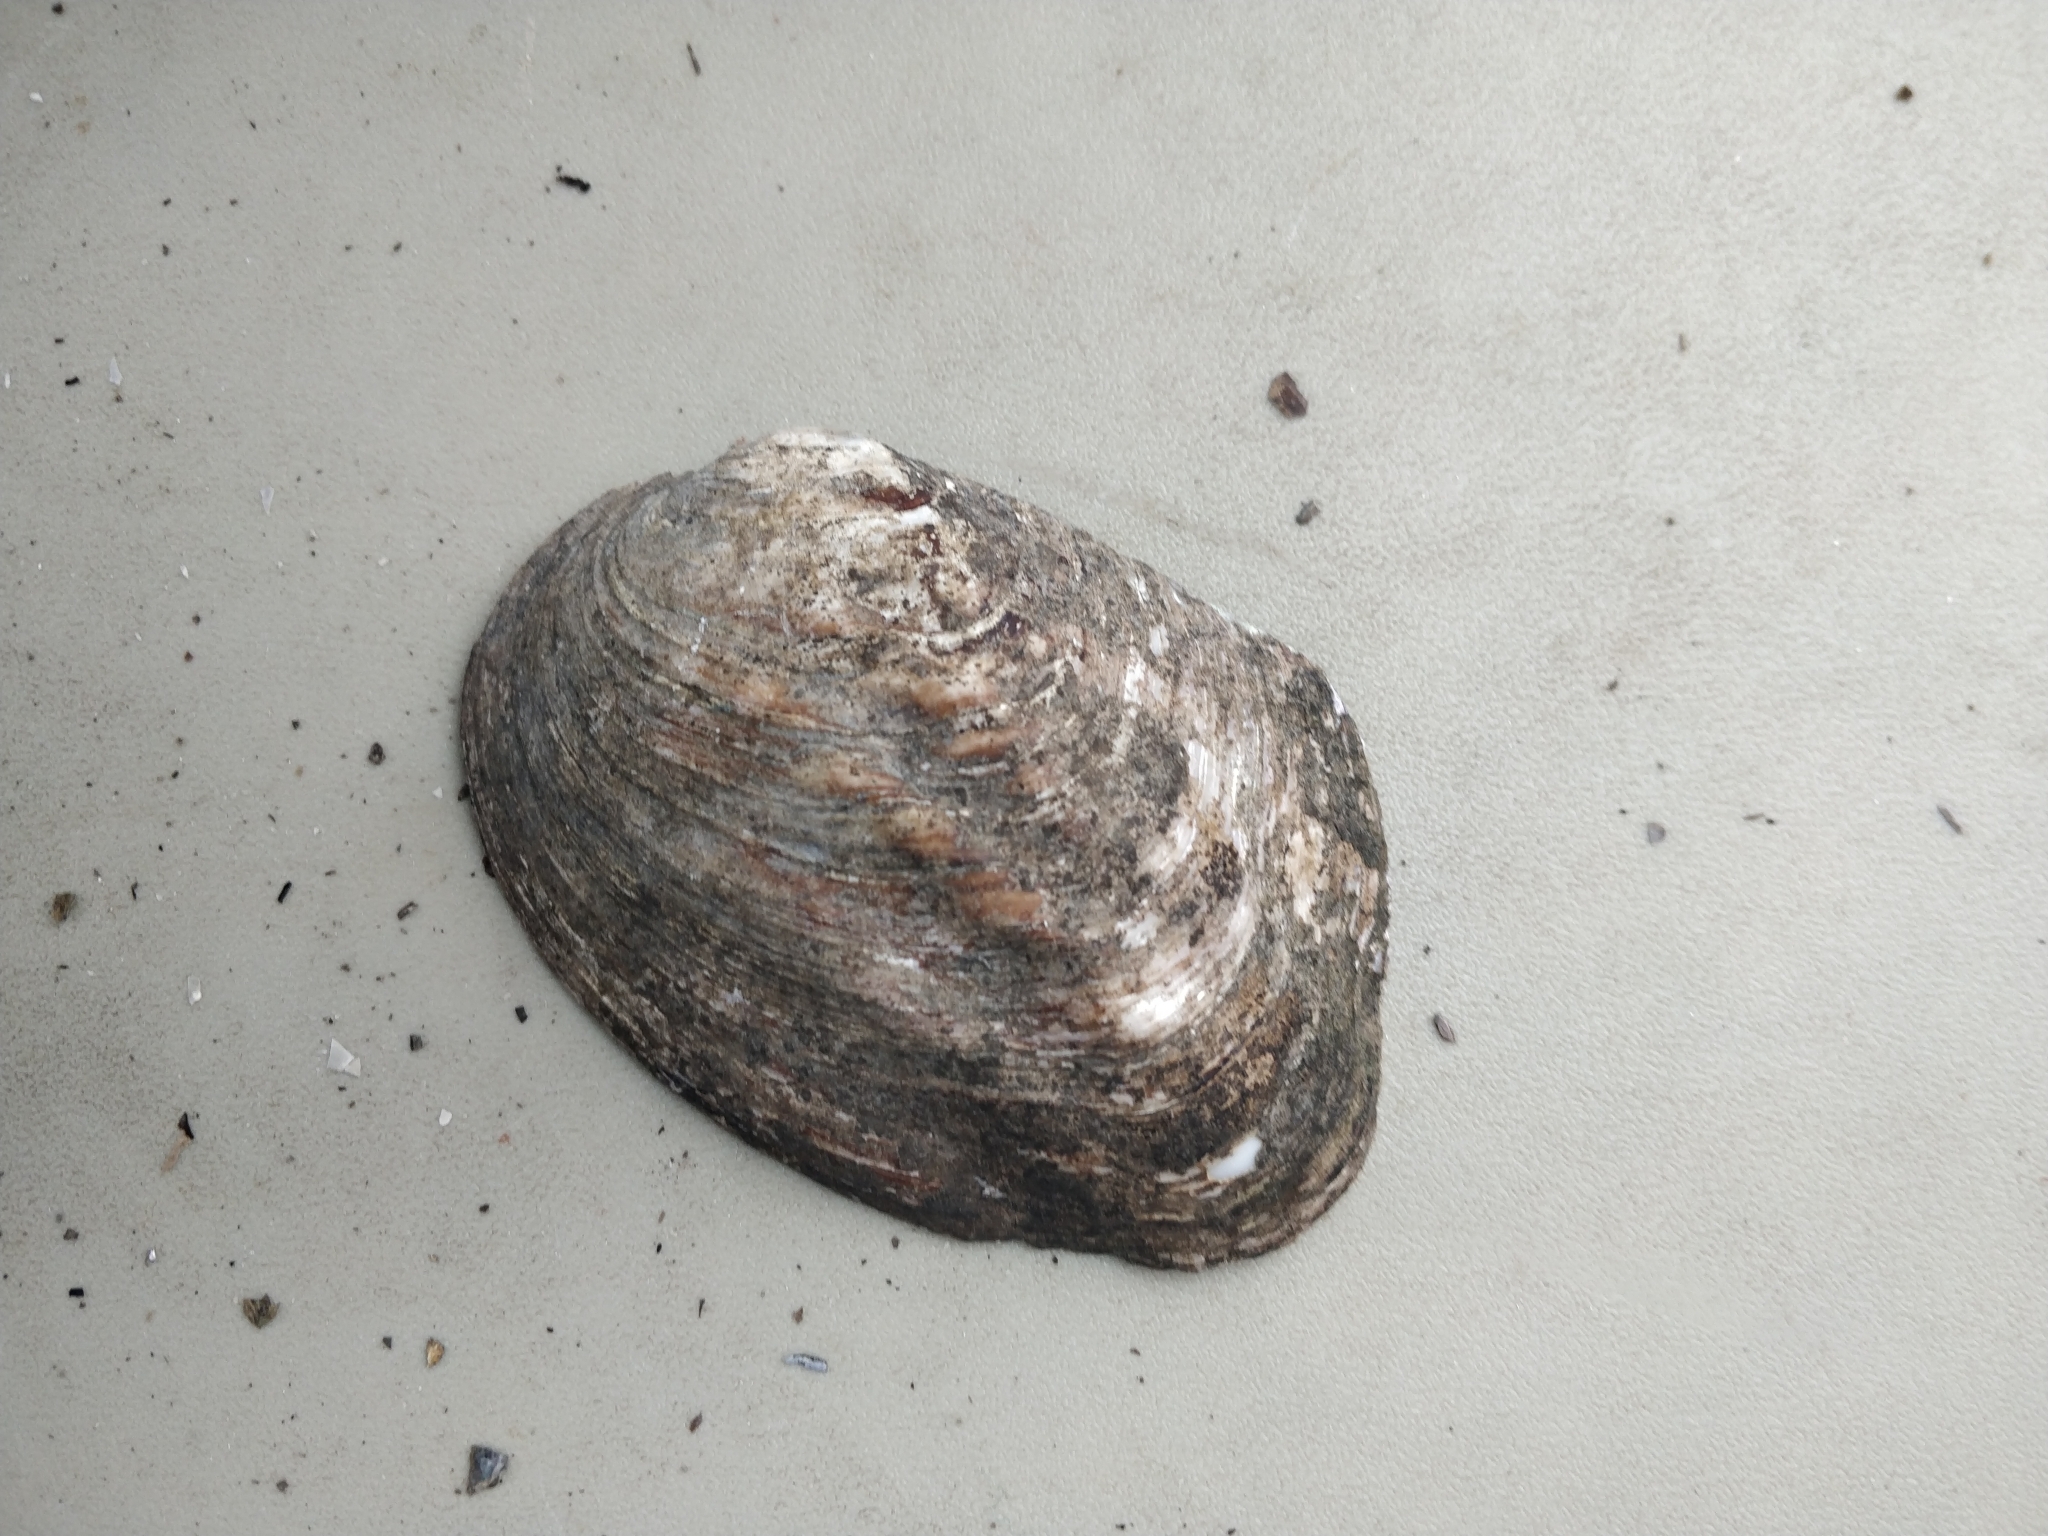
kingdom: Animalia
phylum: Mollusca
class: Bivalvia
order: Unionida
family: Unionidae
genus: Amblema
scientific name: Amblema plicata
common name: Threeridge
